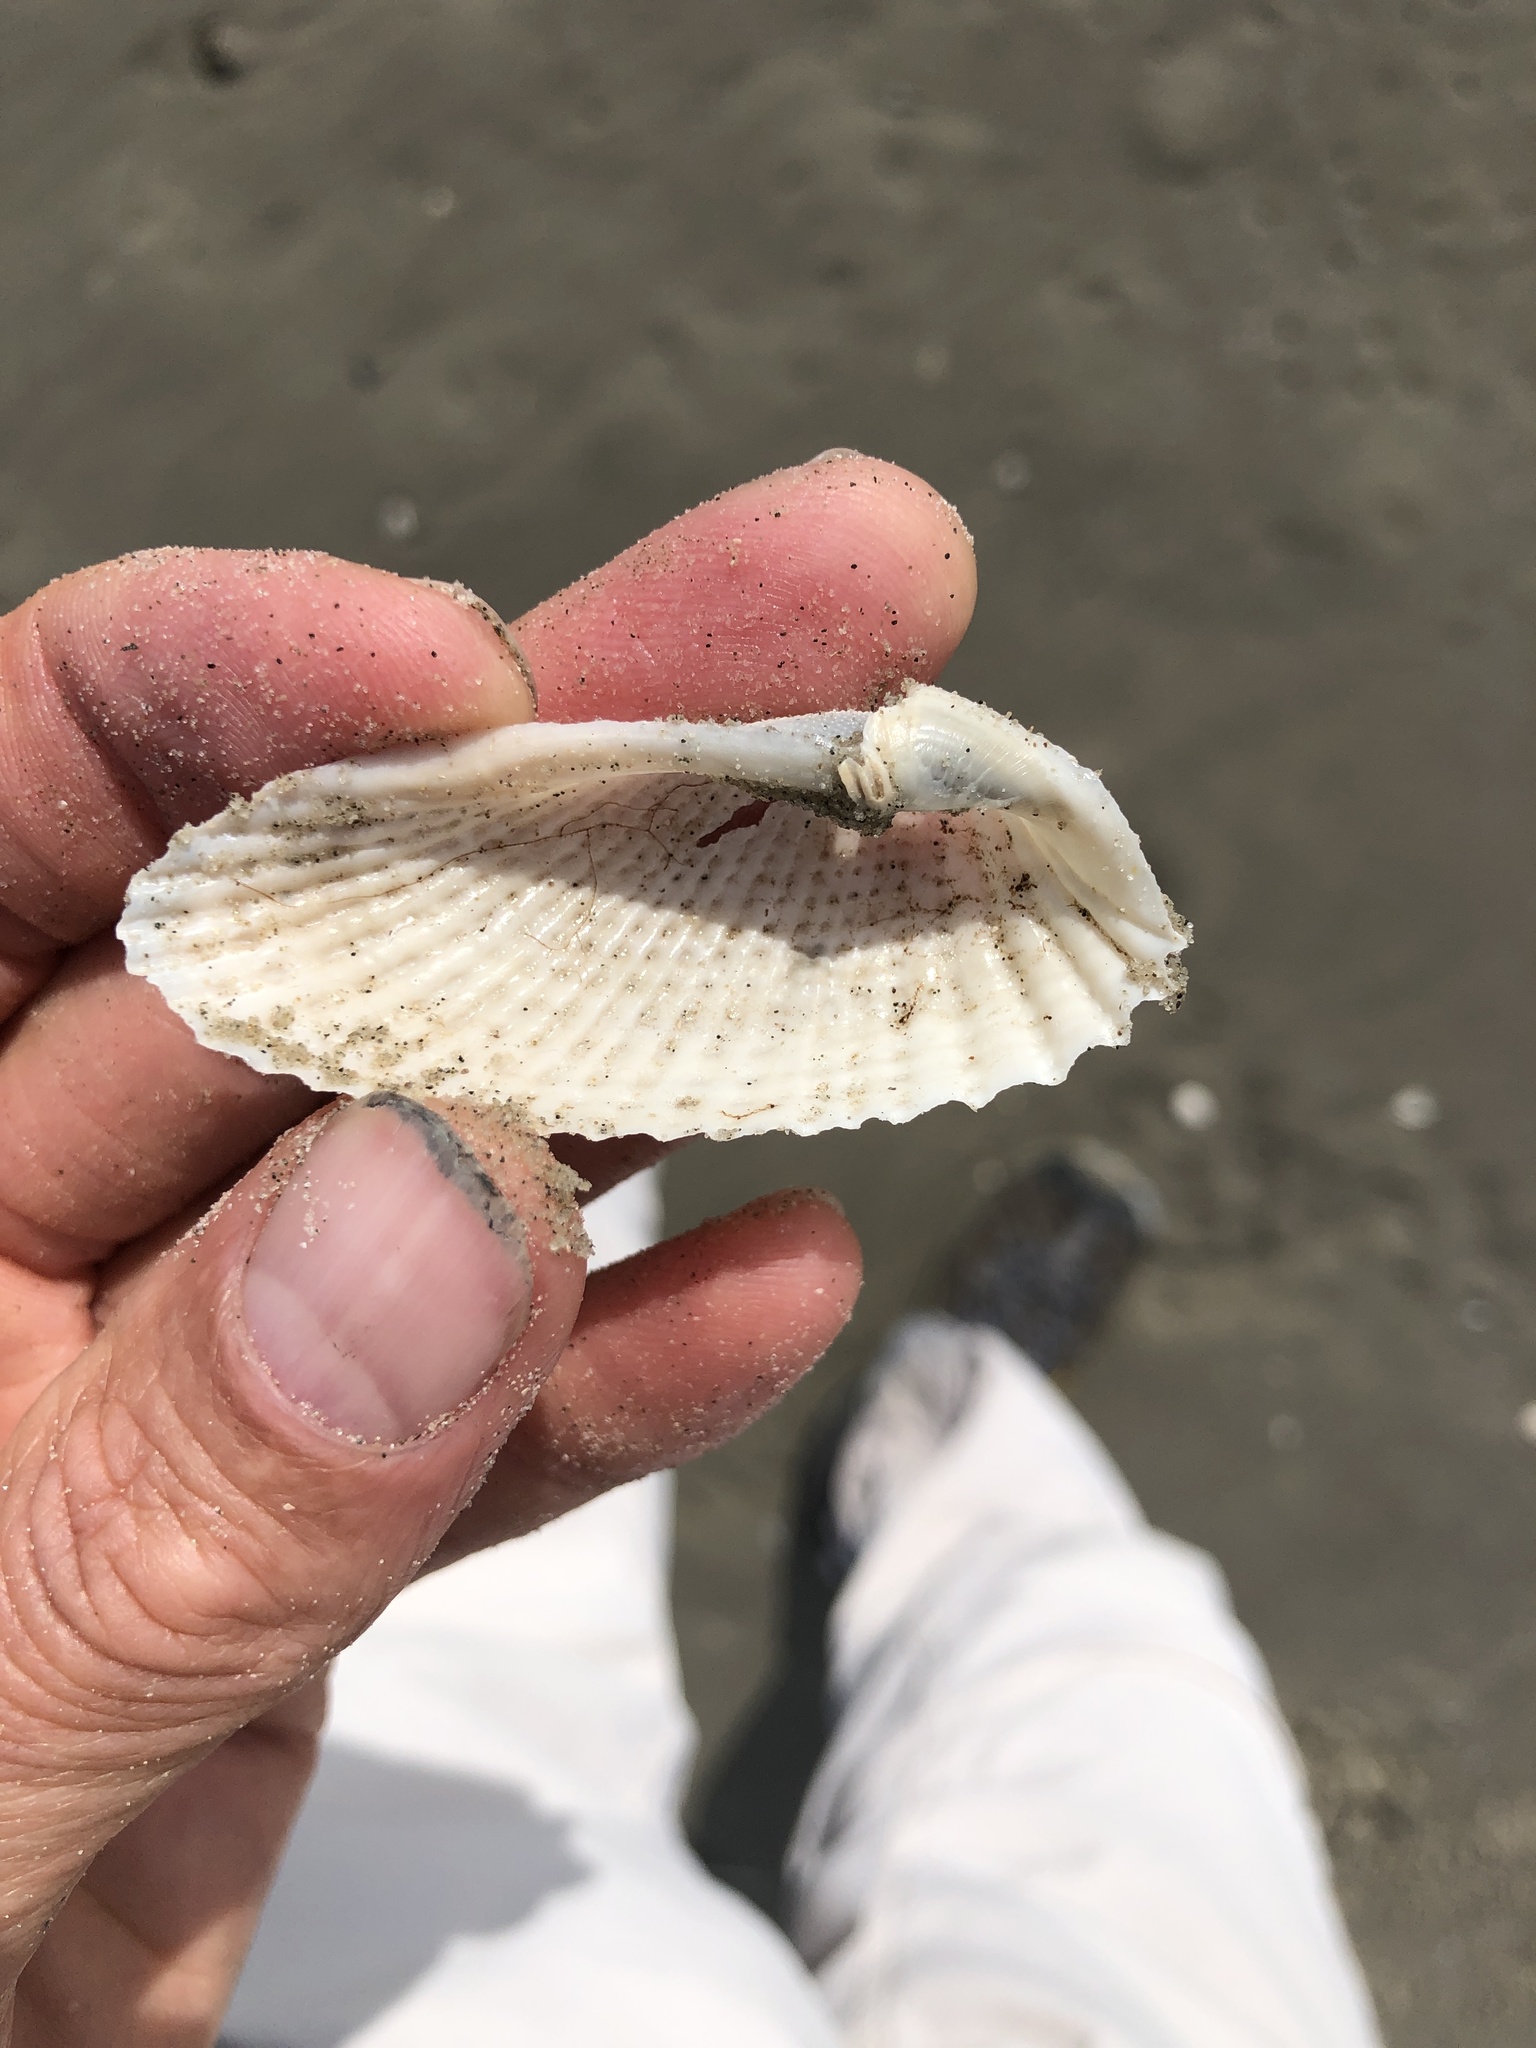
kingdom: Animalia
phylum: Mollusca
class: Bivalvia
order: Myida
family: Pholadidae
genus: Cyrtopleura
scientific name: Cyrtopleura costata
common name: Angel wing
